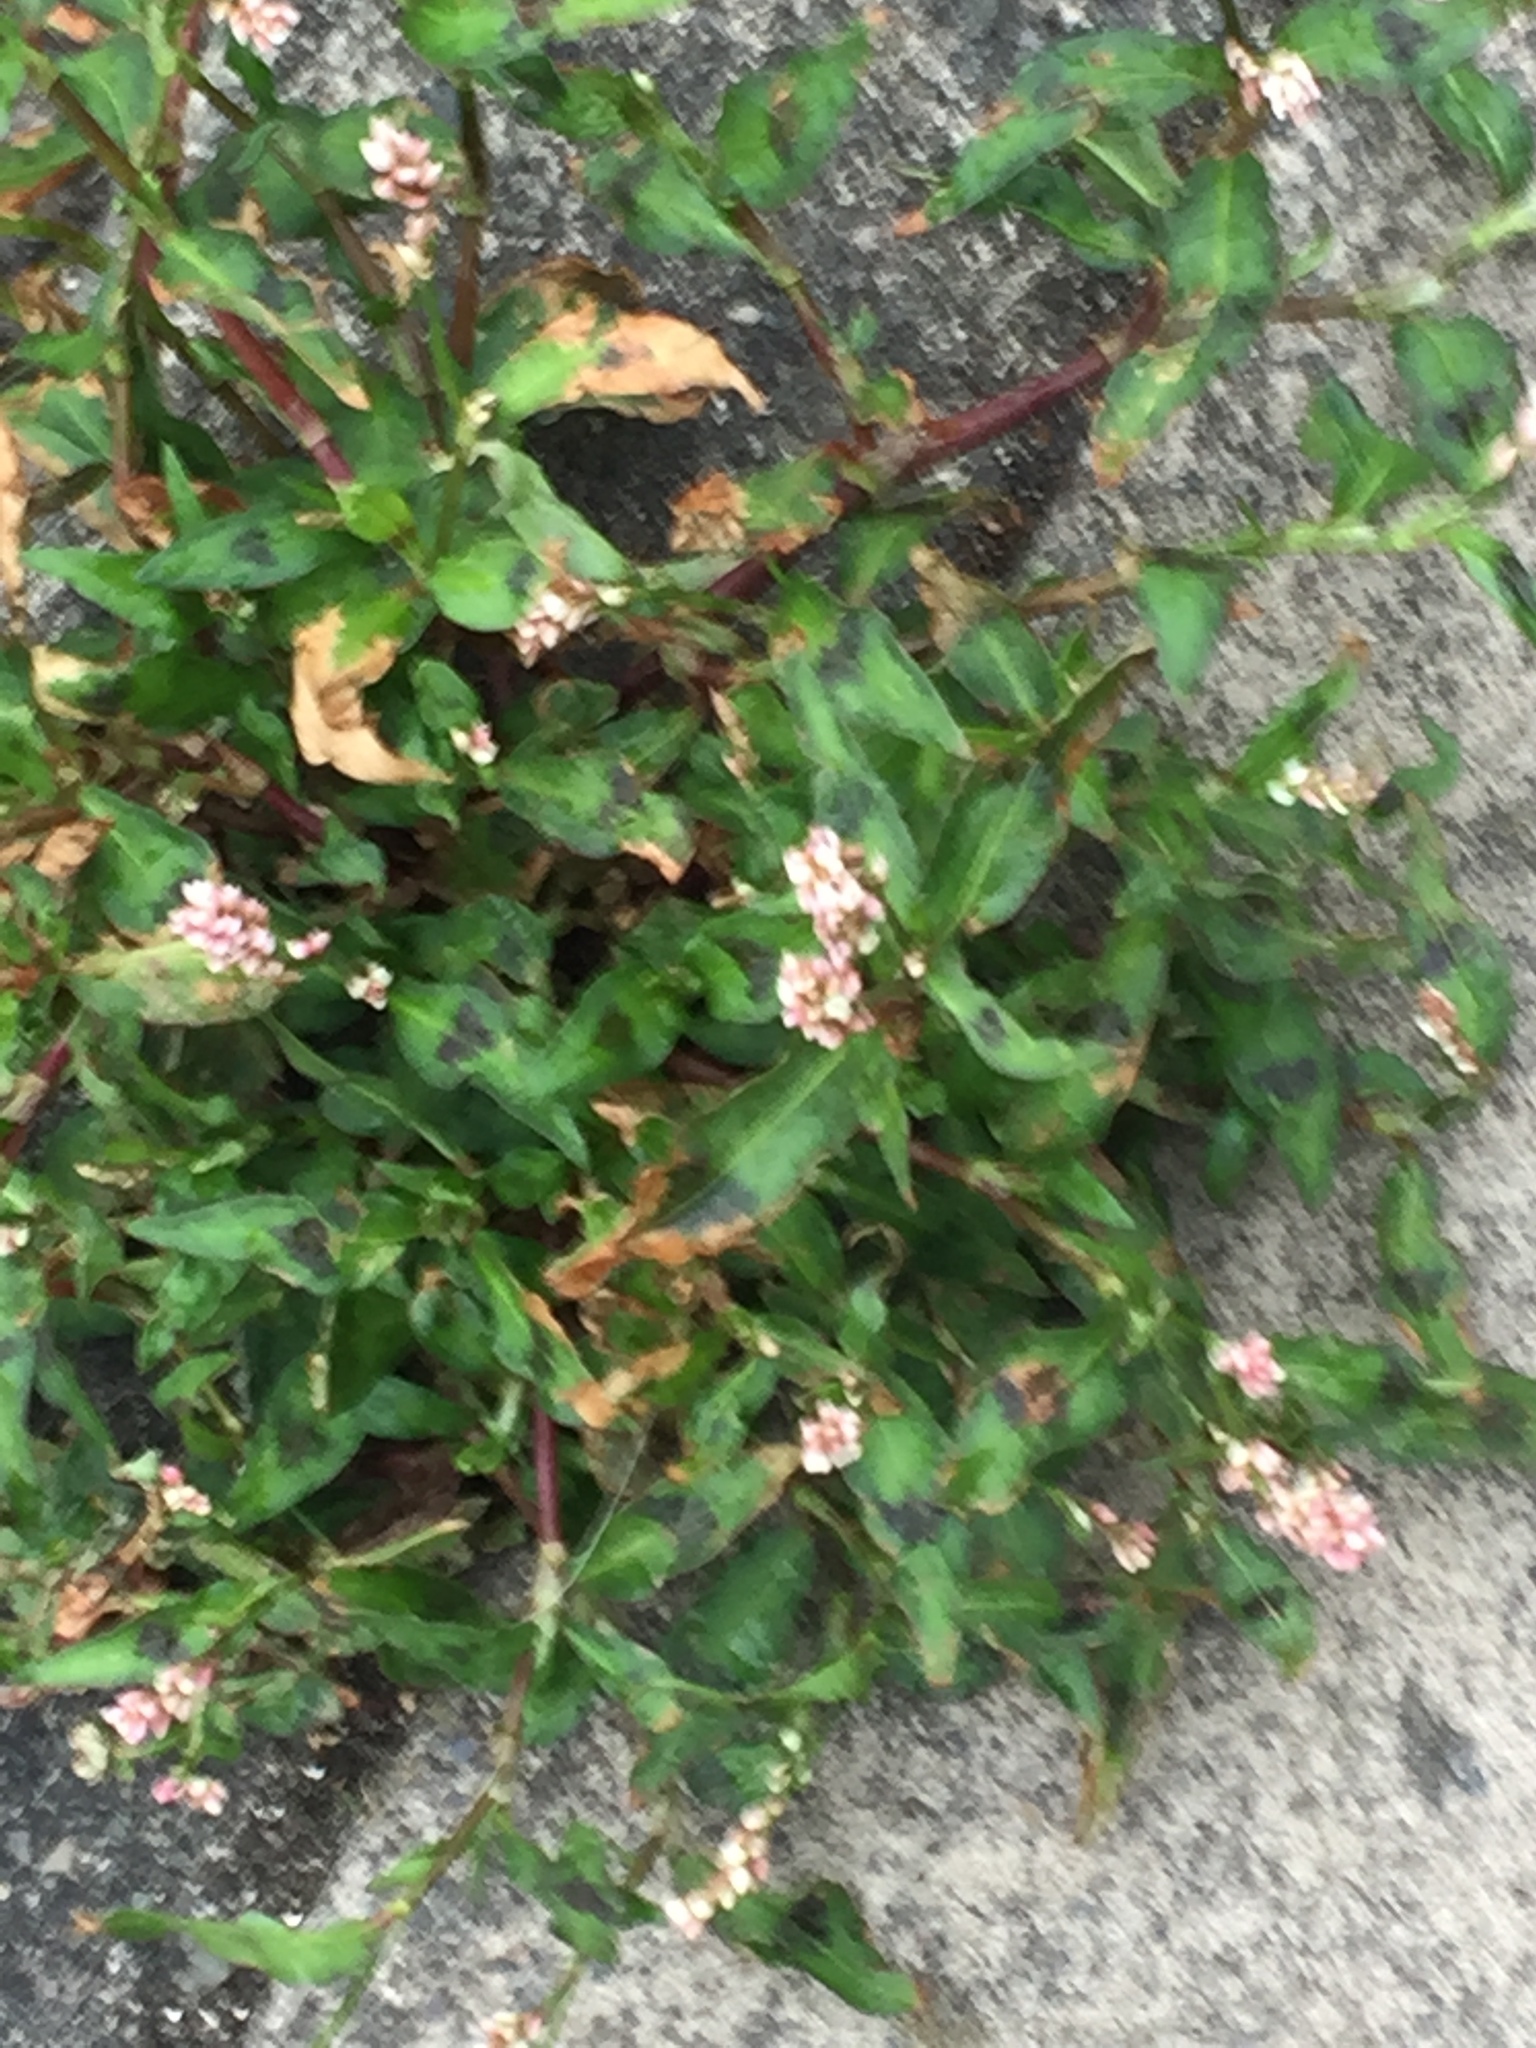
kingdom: Plantae
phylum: Tracheophyta
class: Magnoliopsida
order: Caryophyllales
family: Polygonaceae
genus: Persicaria
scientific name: Persicaria maculosa
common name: Redshank
